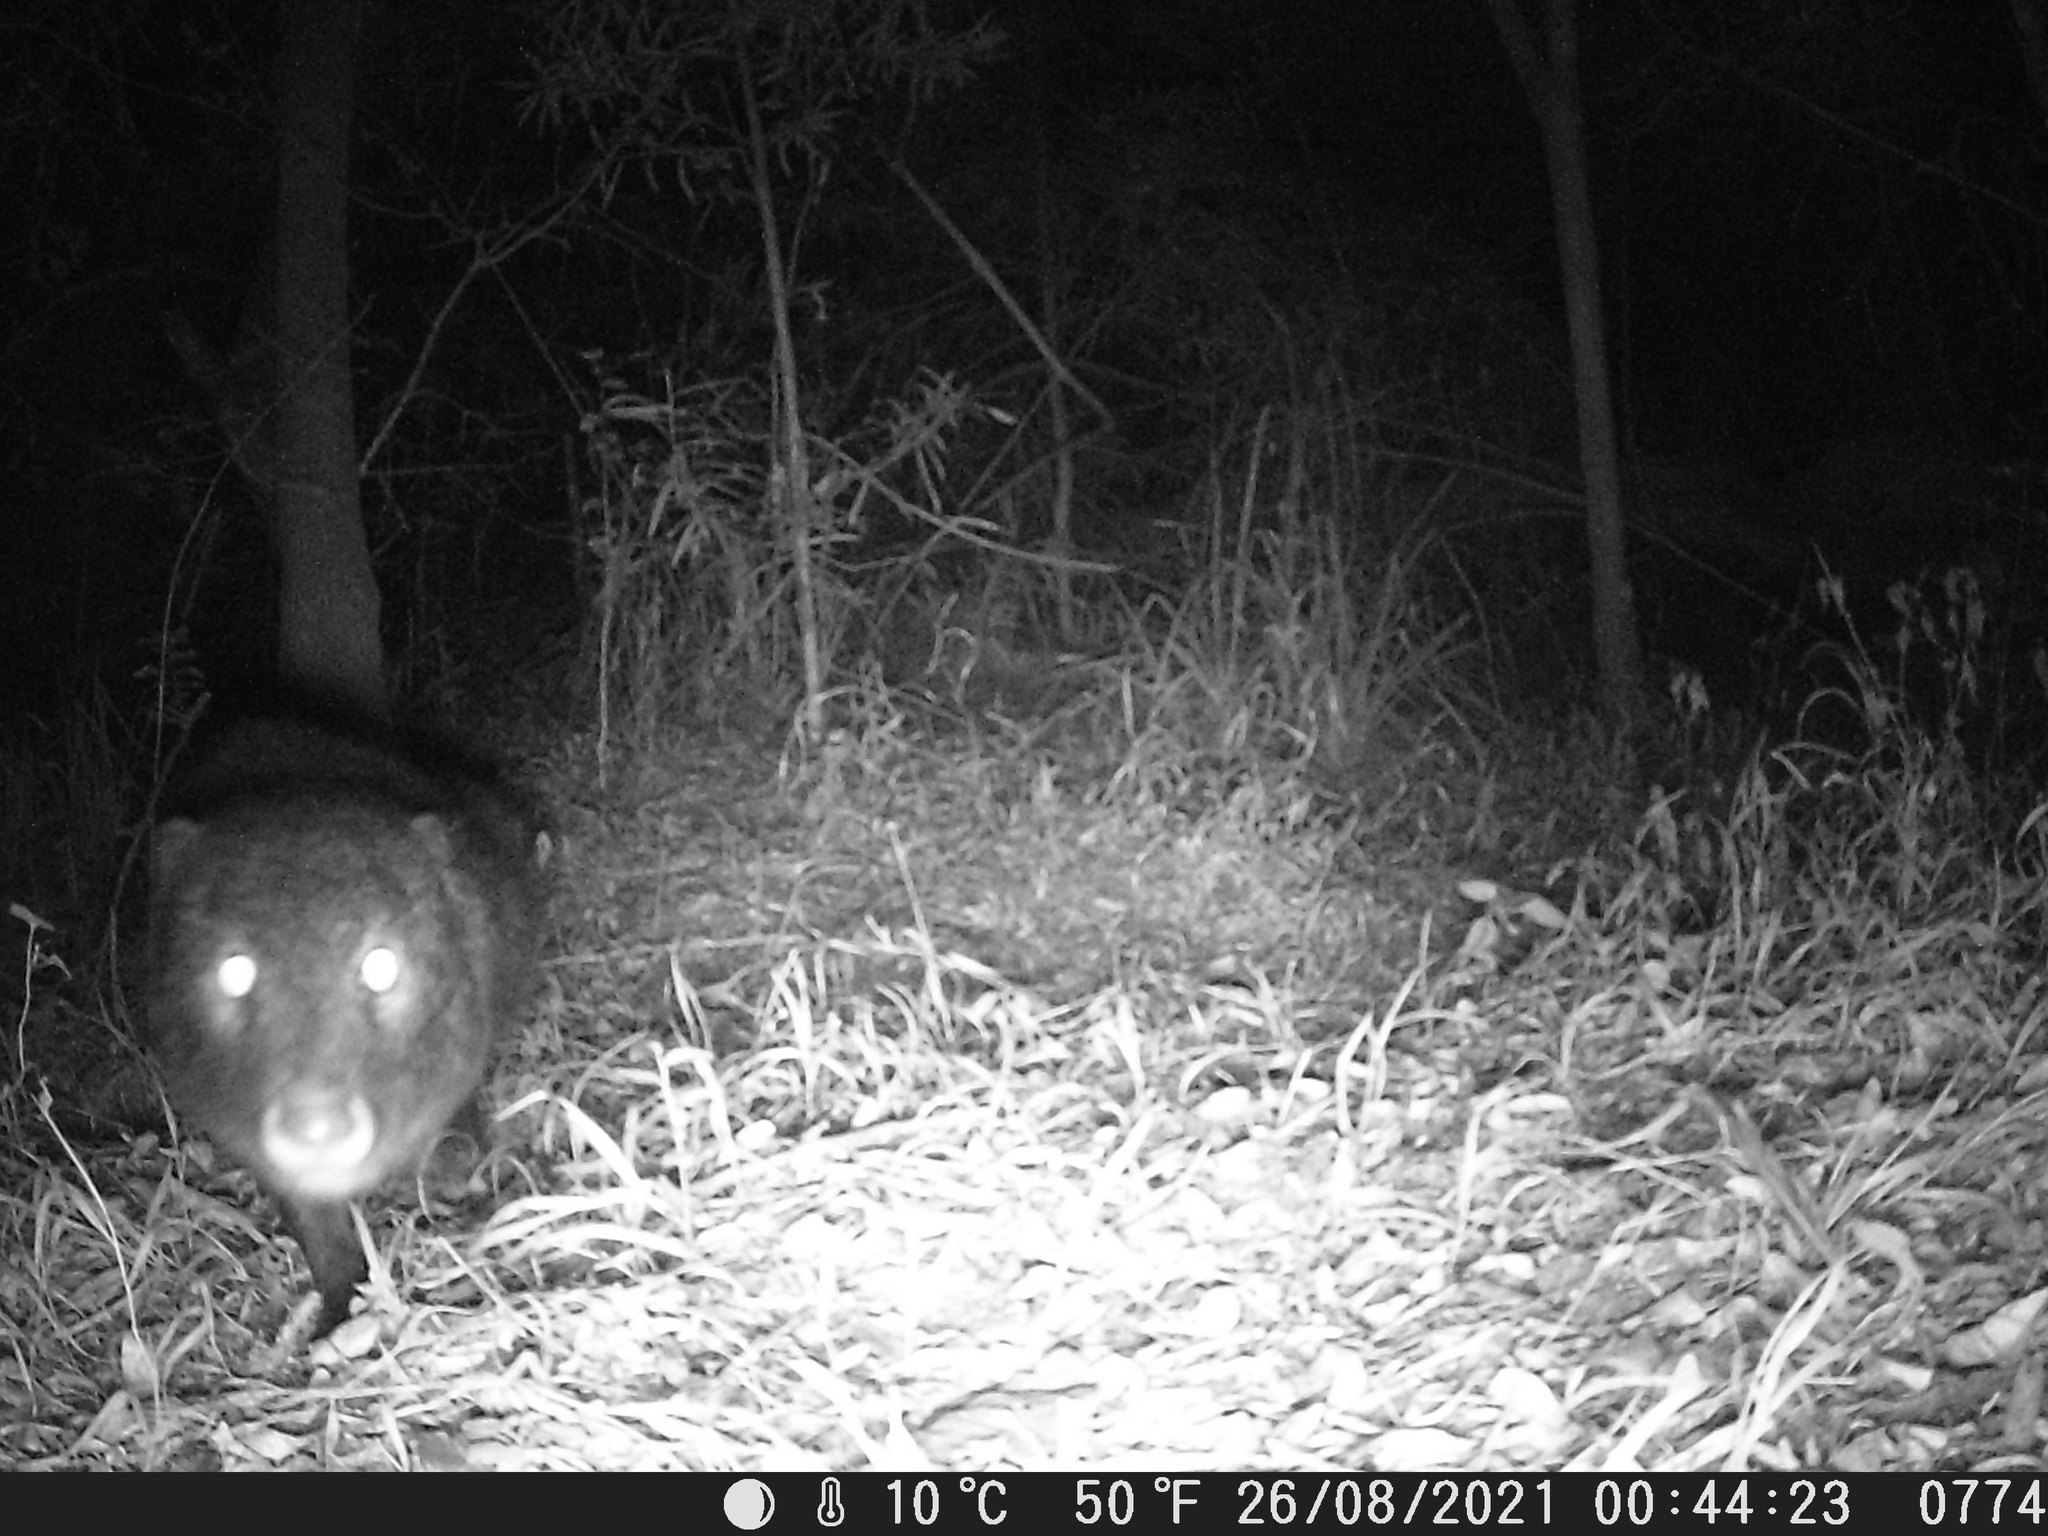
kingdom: Animalia
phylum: Chordata
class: Mammalia
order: Carnivora
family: Herpestidae
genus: Atilax
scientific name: Atilax paludinosus
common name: Marsh mongoose
